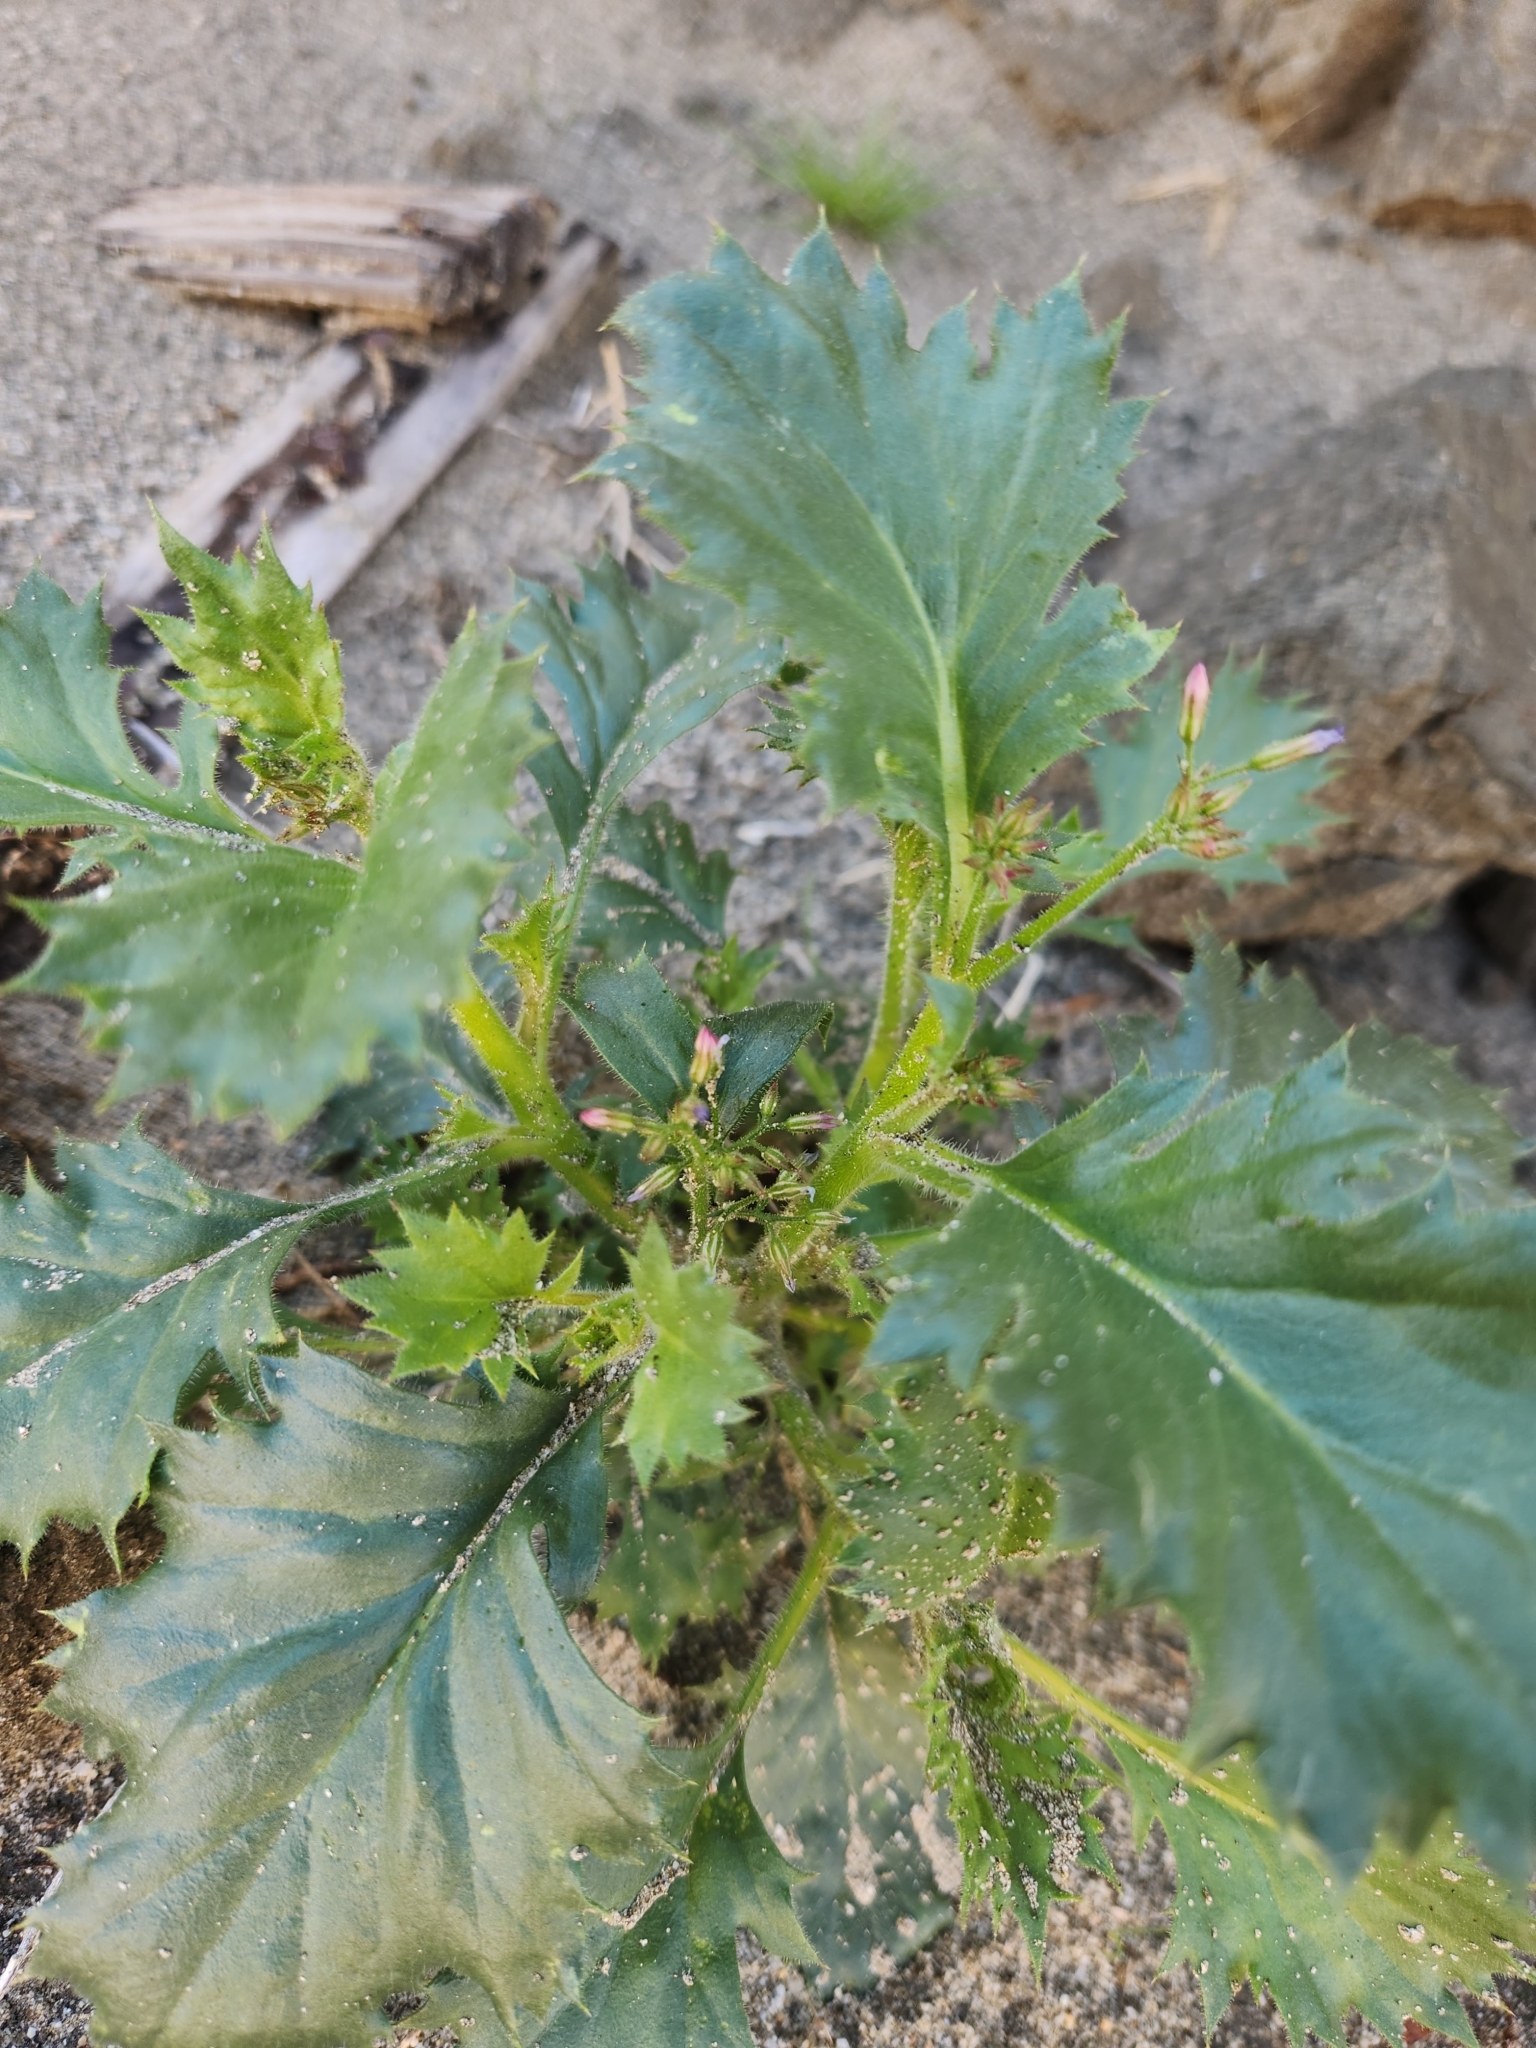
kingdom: Plantae
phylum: Tracheophyta
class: Magnoliopsida
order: Ericales
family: Polemoniaceae
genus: Aliciella
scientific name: Aliciella latifolia
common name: Broad-leaf gilia
